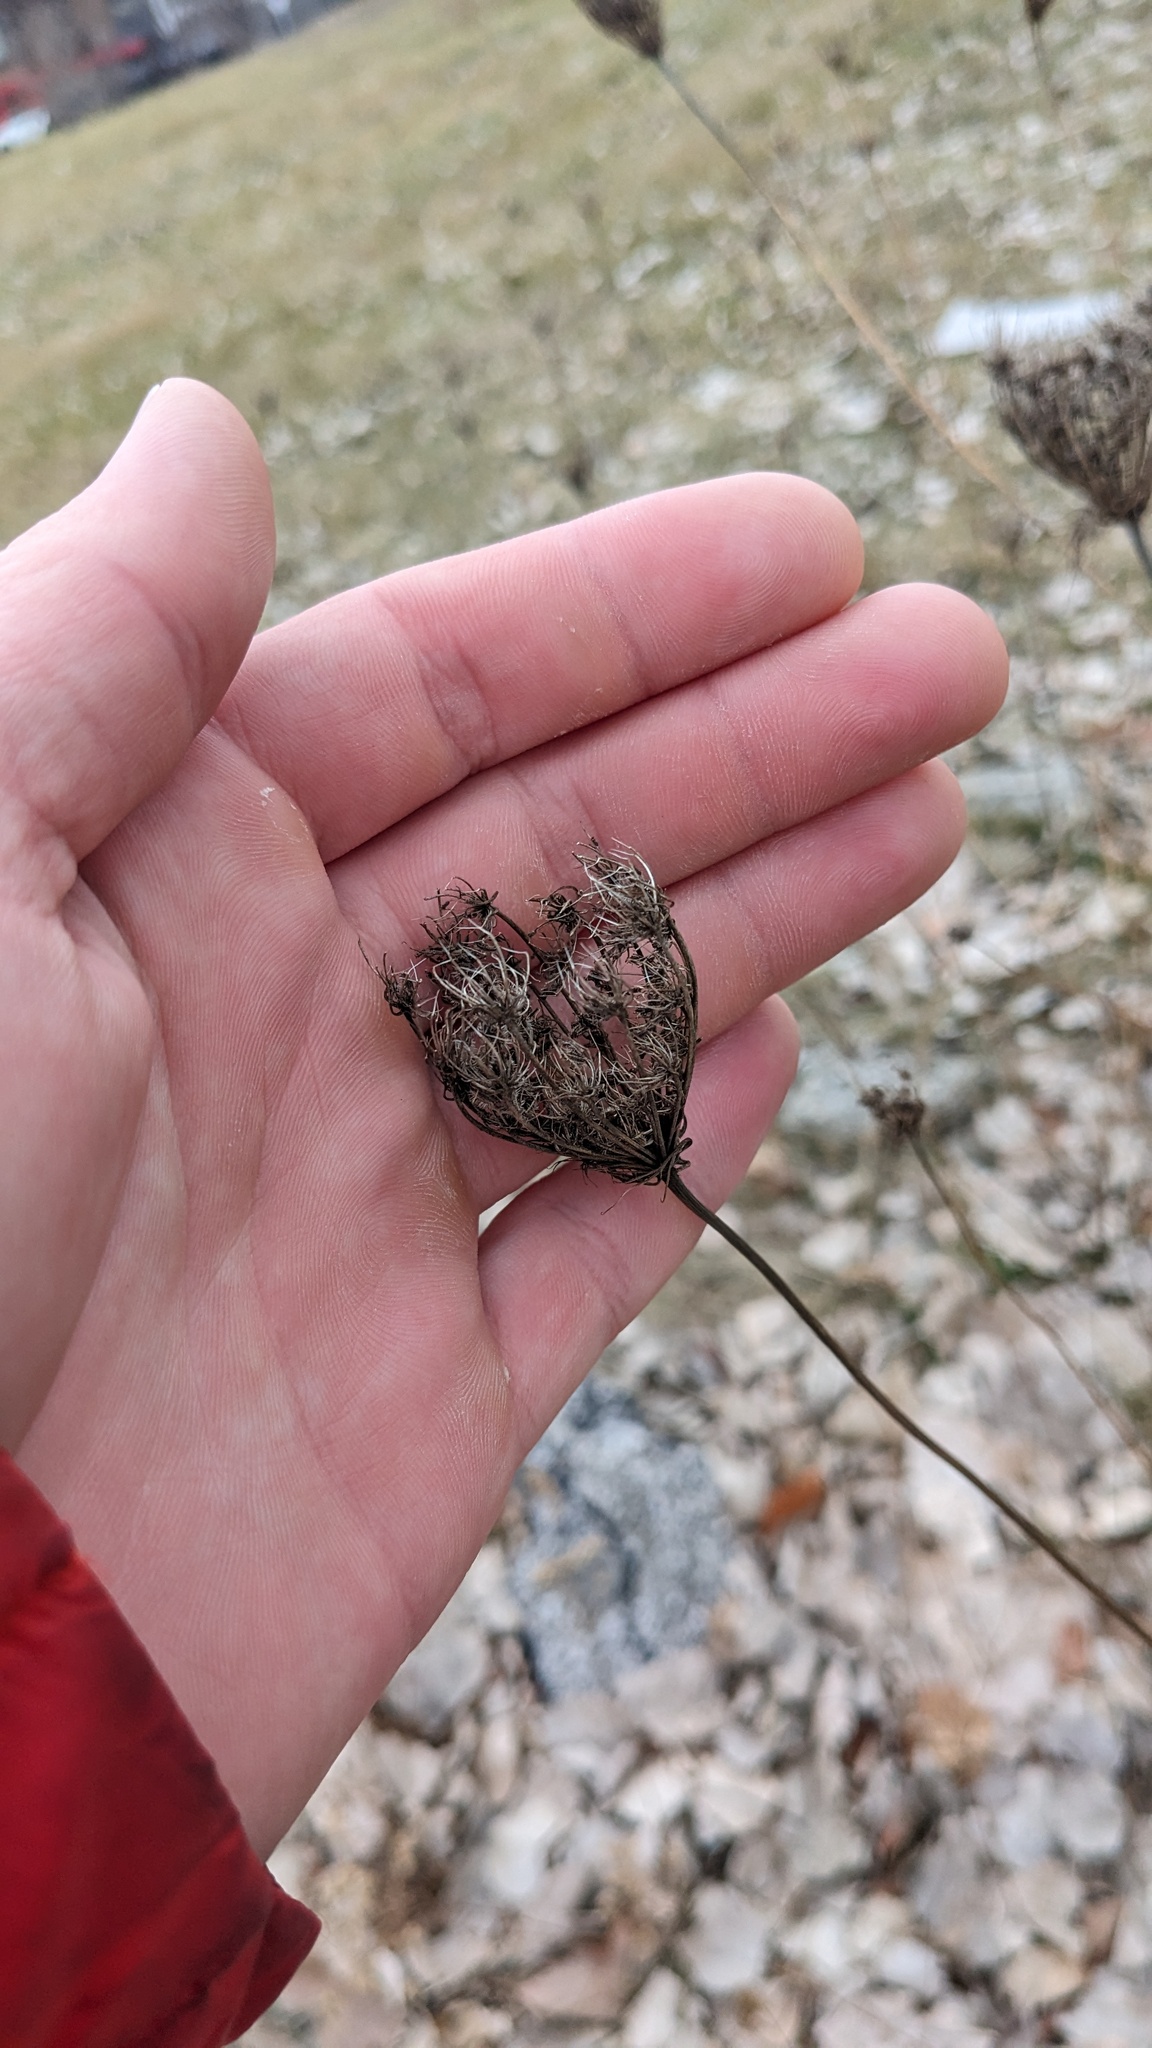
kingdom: Plantae
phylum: Tracheophyta
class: Magnoliopsida
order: Apiales
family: Apiaceae
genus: Daucus
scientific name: Daucus carota
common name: Wild carrot
